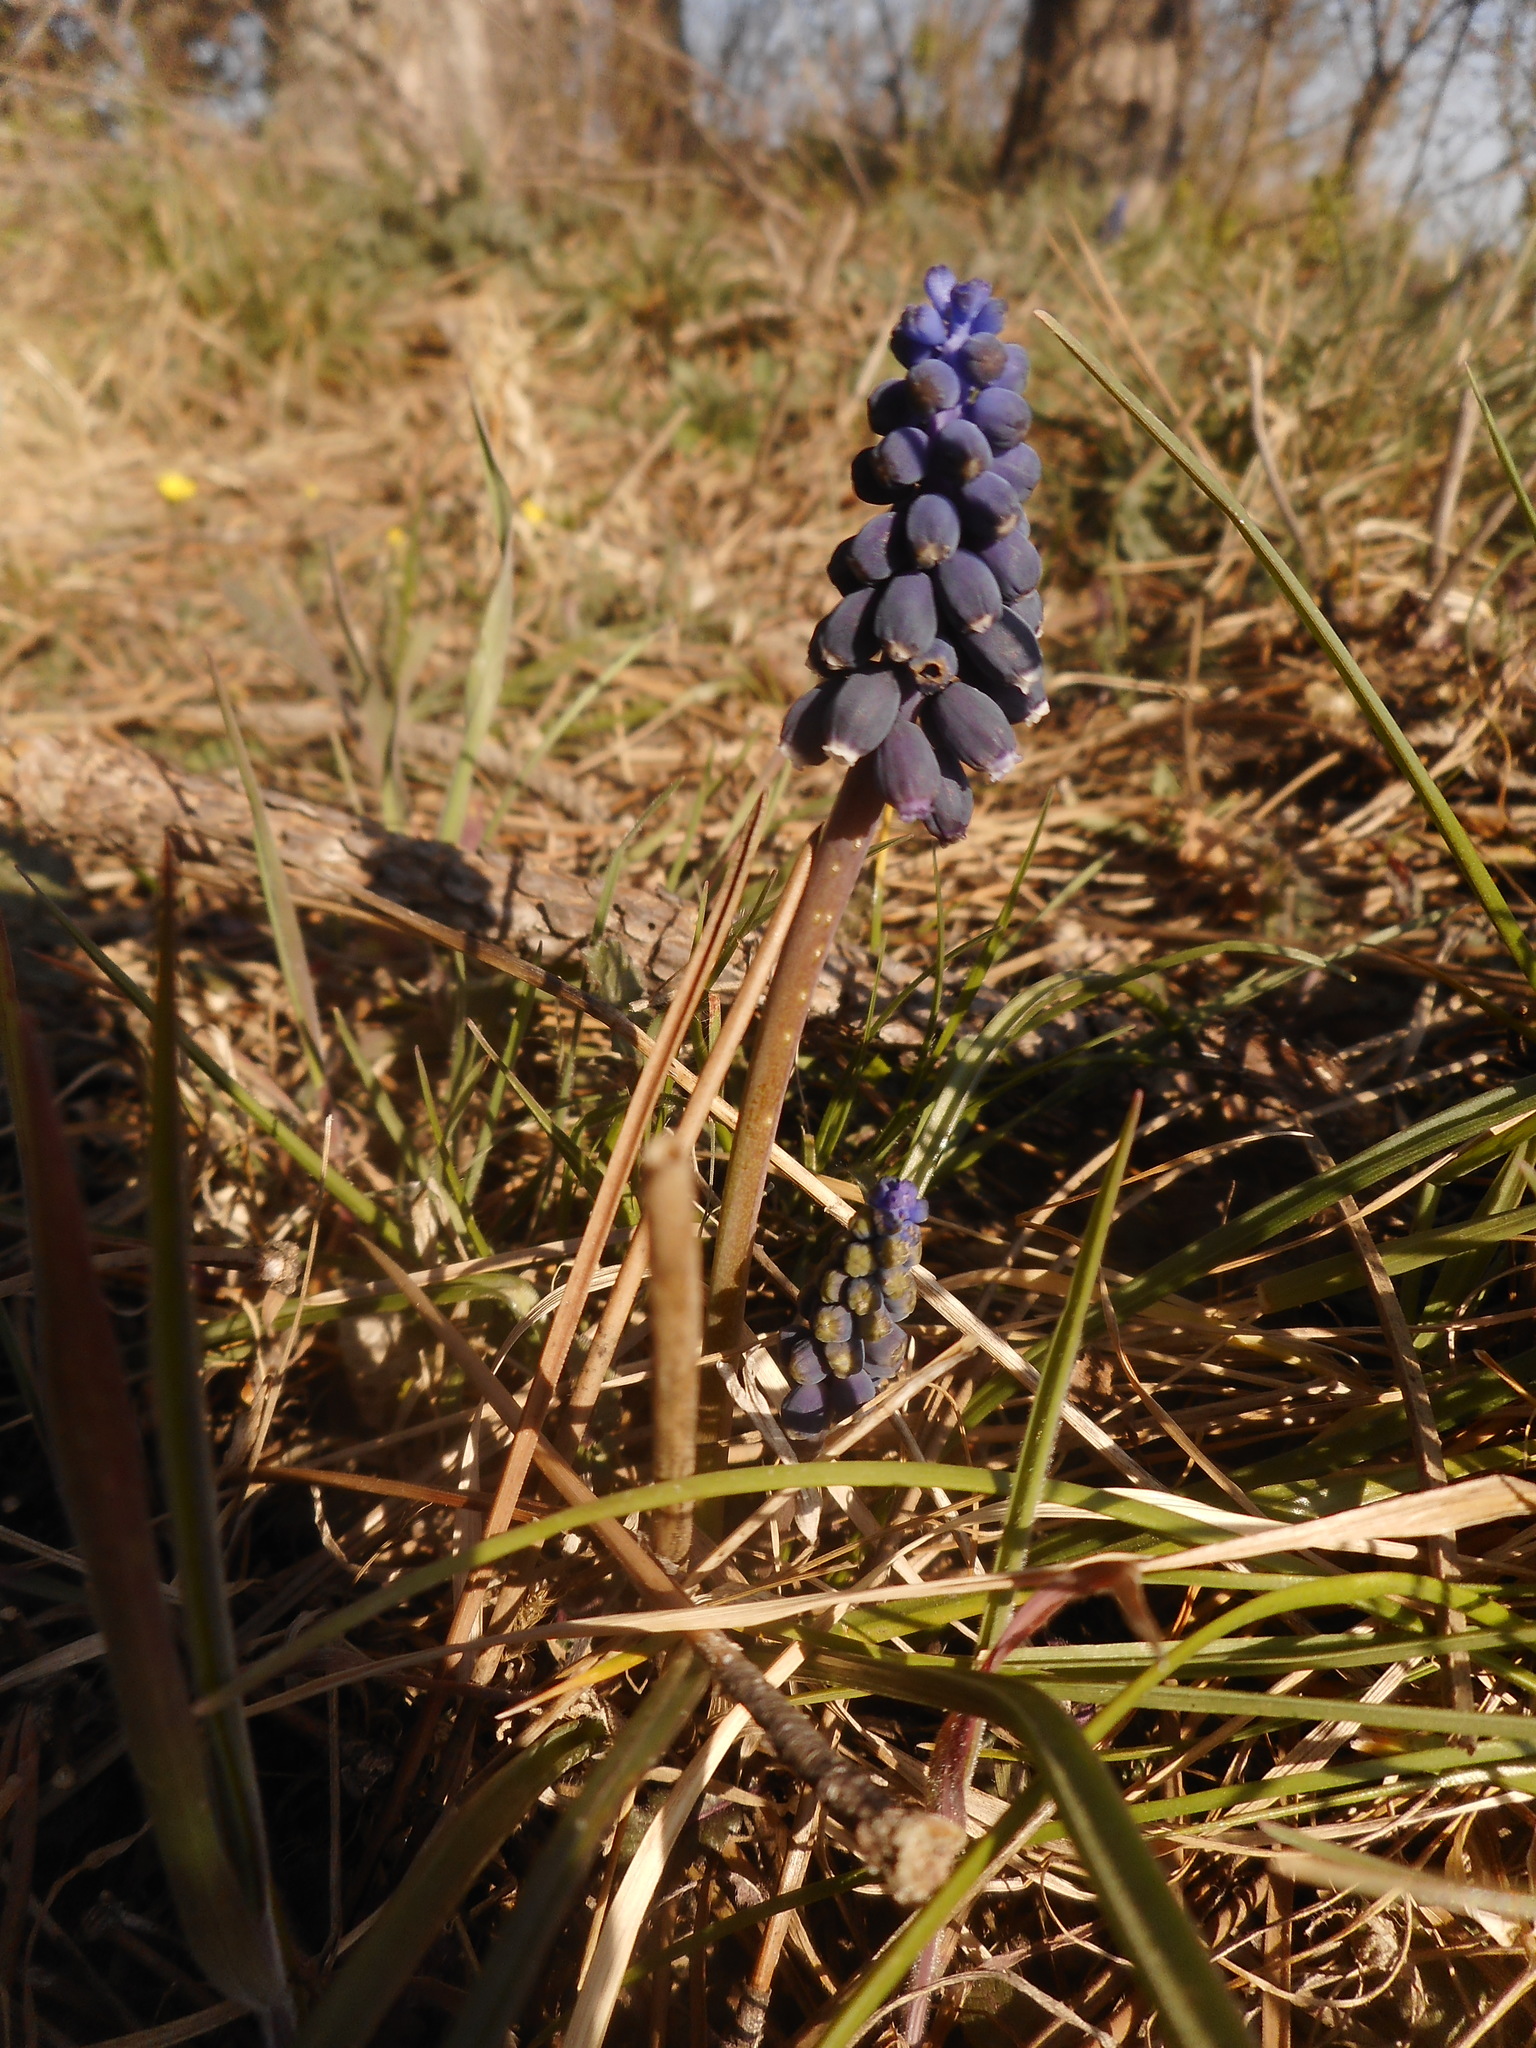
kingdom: Plantae
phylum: Tracheophyta
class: Liliopsida
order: Asparagales
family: Asparagaceae
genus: Muscari
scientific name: Muscari neglectum
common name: Grape-hyacinth
